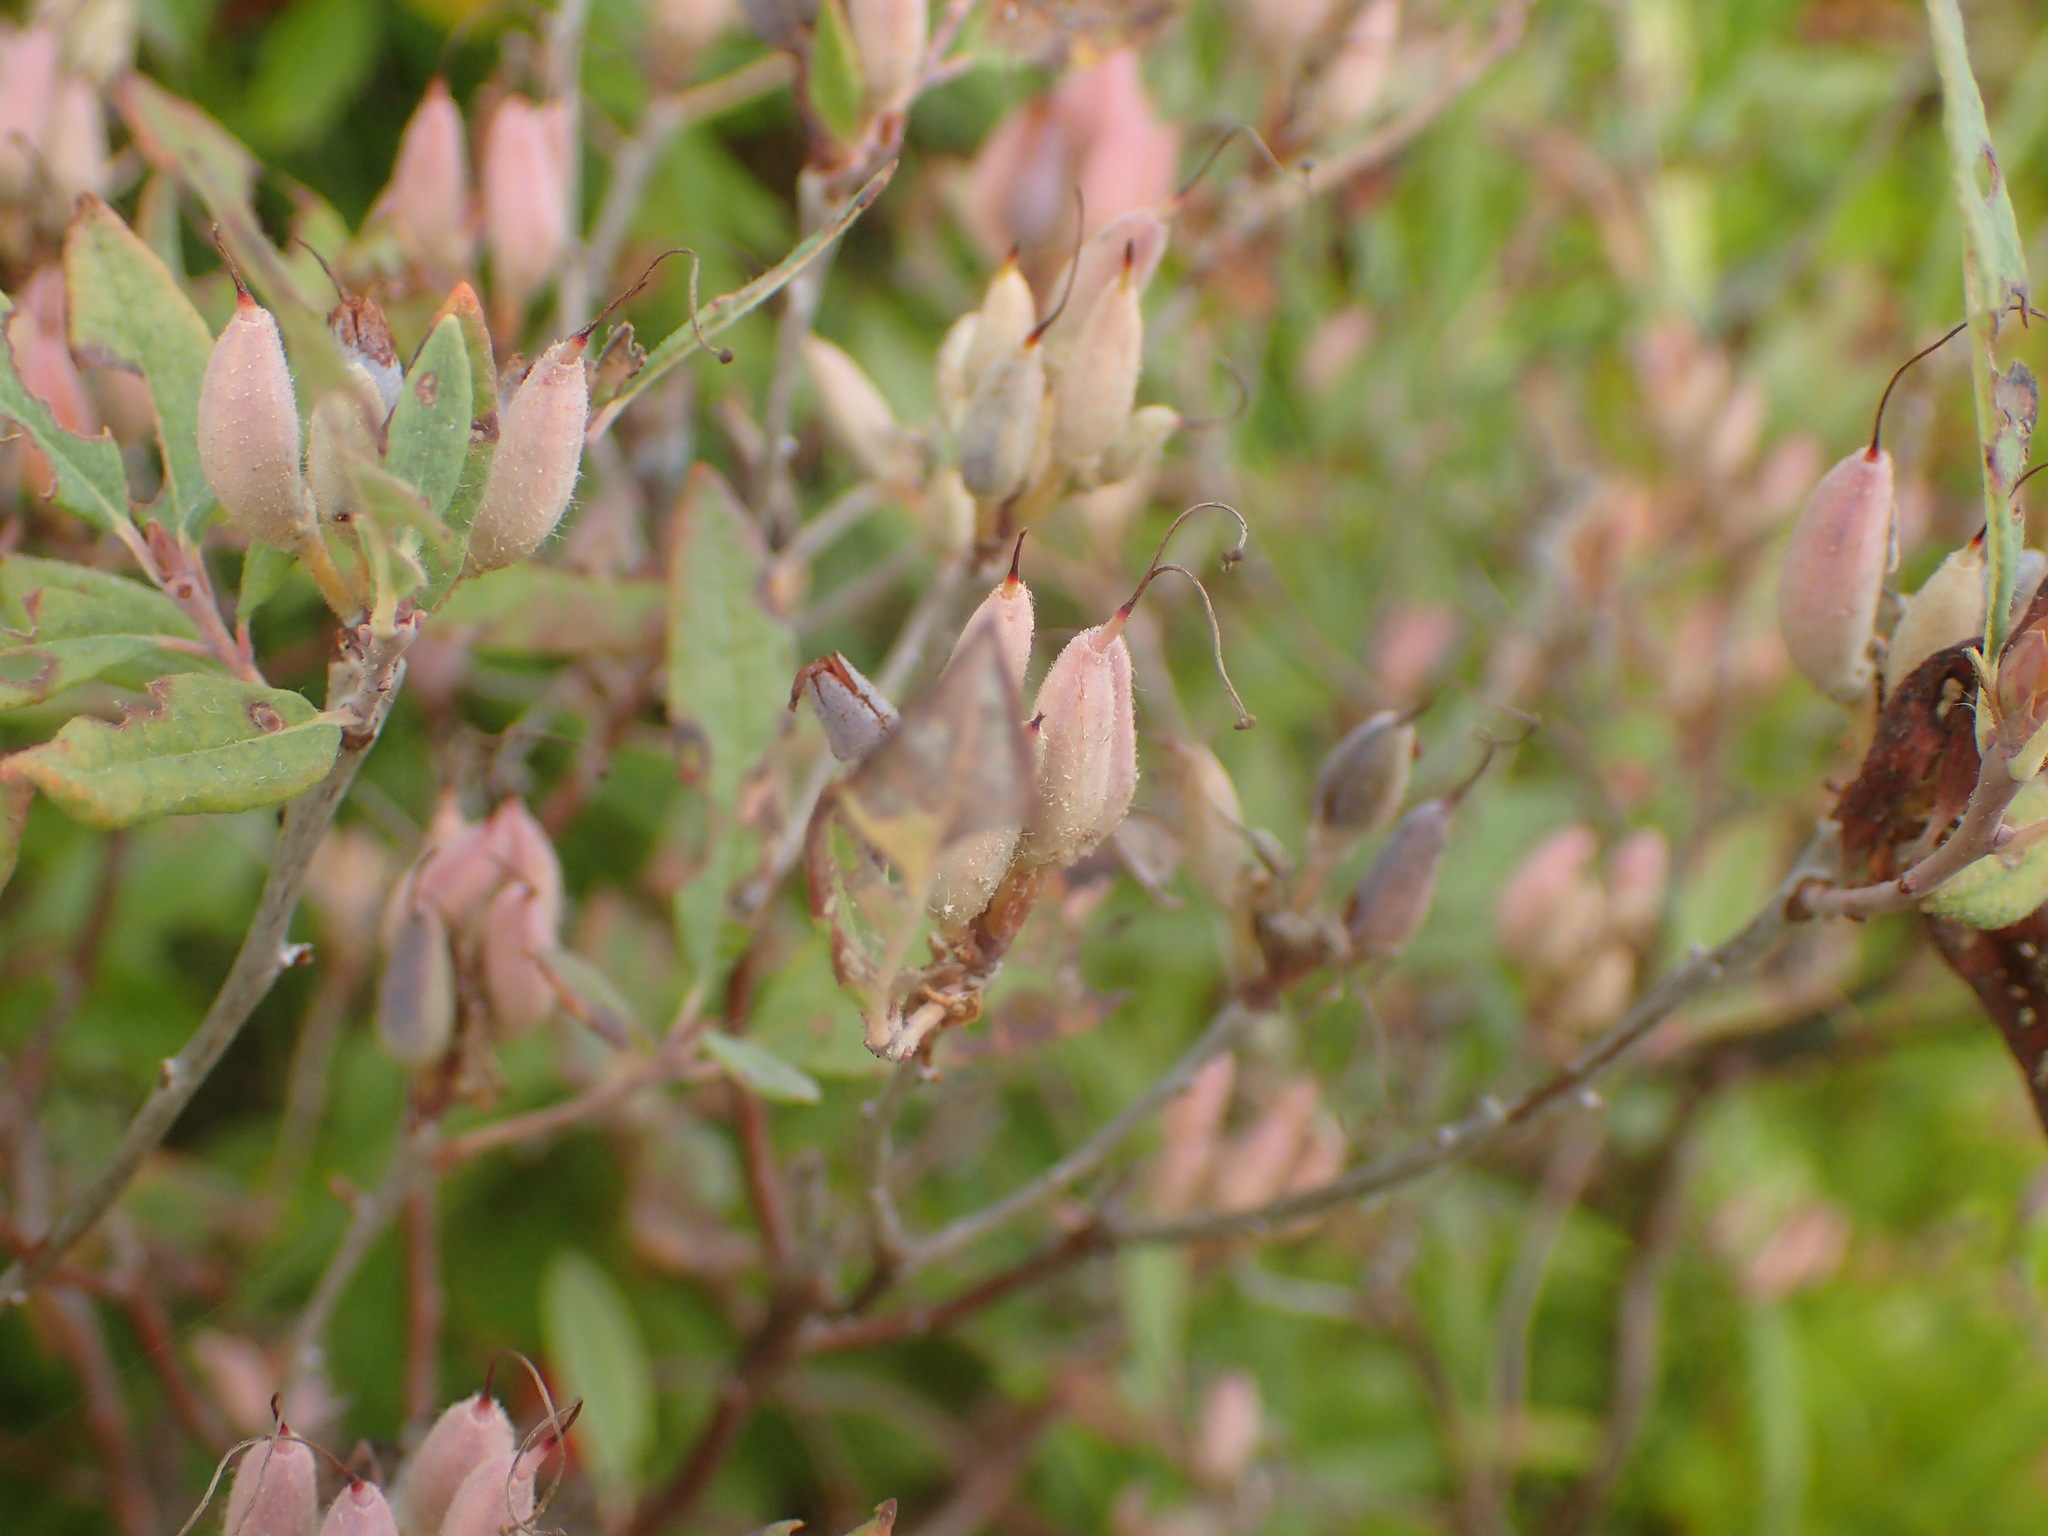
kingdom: Plantae
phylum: Tracheophyta
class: Magnoliopsida
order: Ericales
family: Ericaceae
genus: Rhododendron
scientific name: Rhododendron canadense
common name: Rhodora
